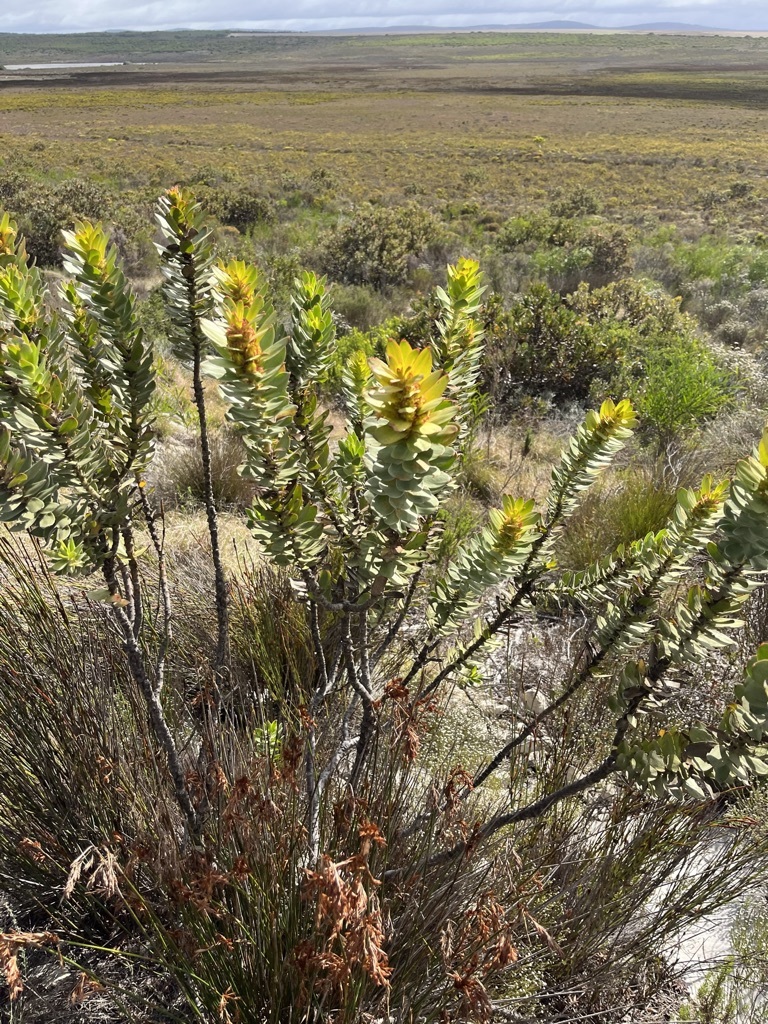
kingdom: Plantae
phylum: Tracheophyta
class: Magnoliopsida
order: Proteales
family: Proteaceae
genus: Mimetes
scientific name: Mimetes saxatilis
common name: Limestone pagoda
